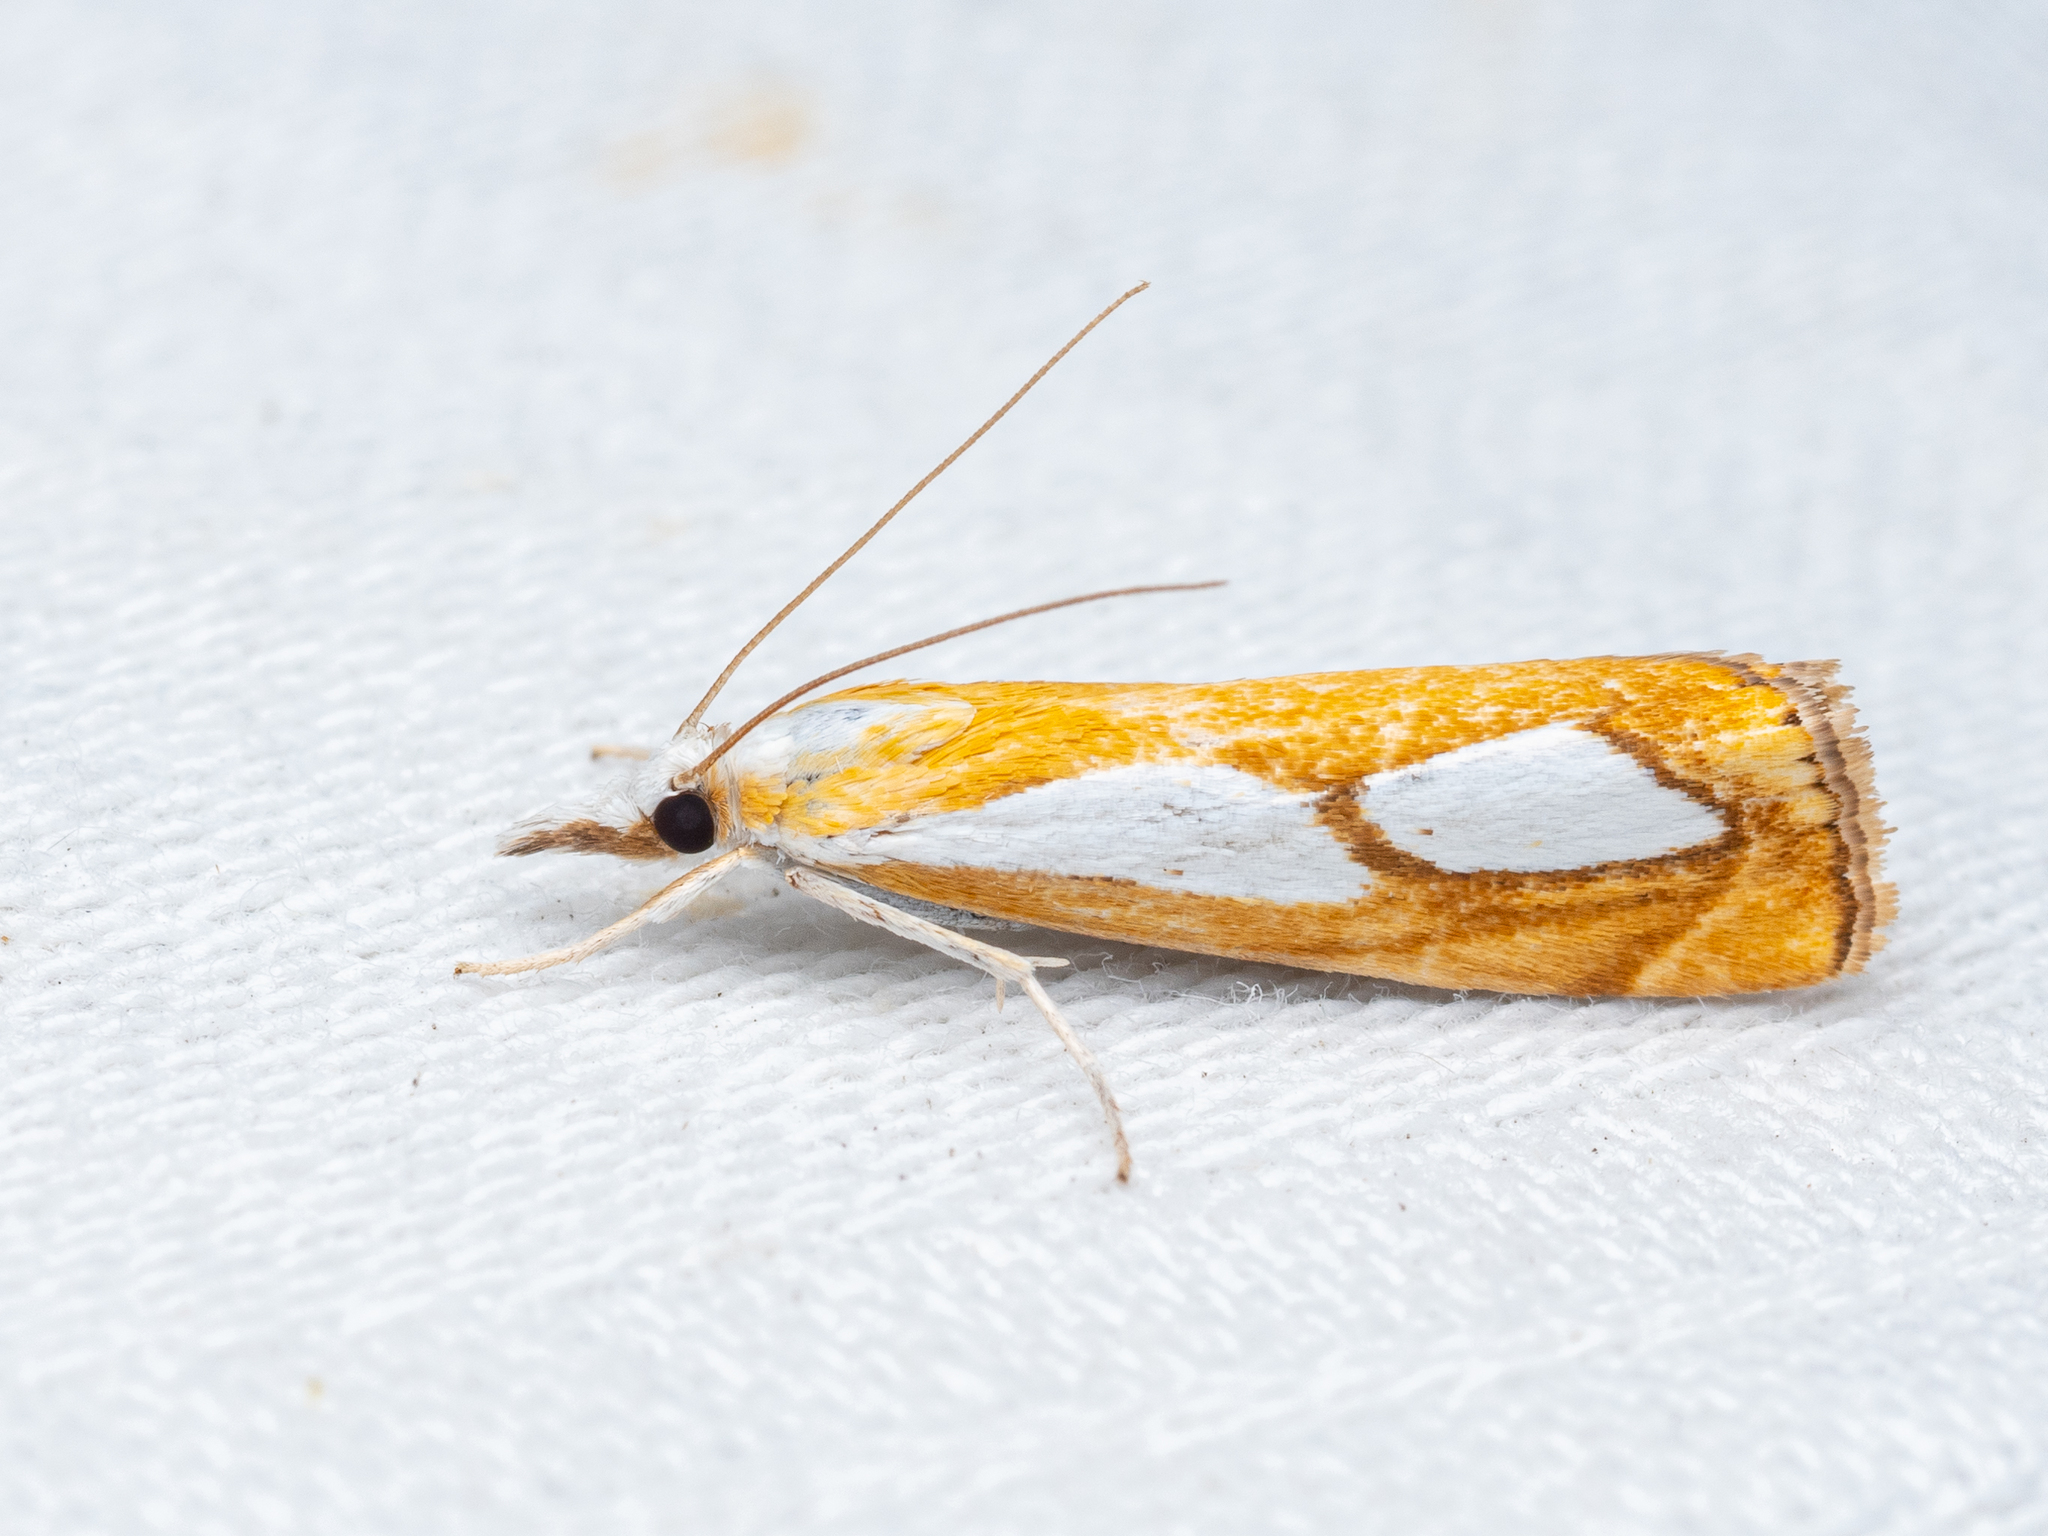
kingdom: Animalia
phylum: Arthropoda
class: Insecta
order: Lepidoptera
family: Crambidae
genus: Catoptria
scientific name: Catoptria pinella
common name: Pearl grass-veneer
